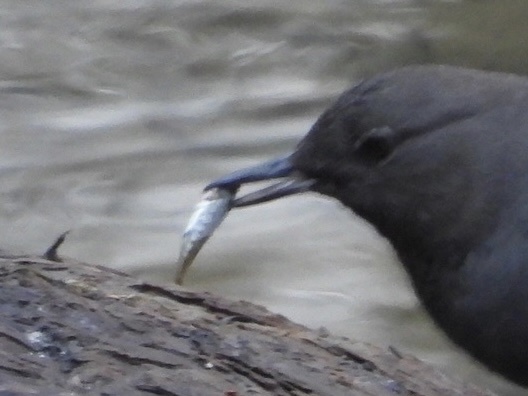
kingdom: Animalia
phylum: Chordata
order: Gasterosteiformes
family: Gasterosteidae
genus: Gasterosteus
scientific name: Gasterosteus aculeatus
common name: Three-spined stickleback
